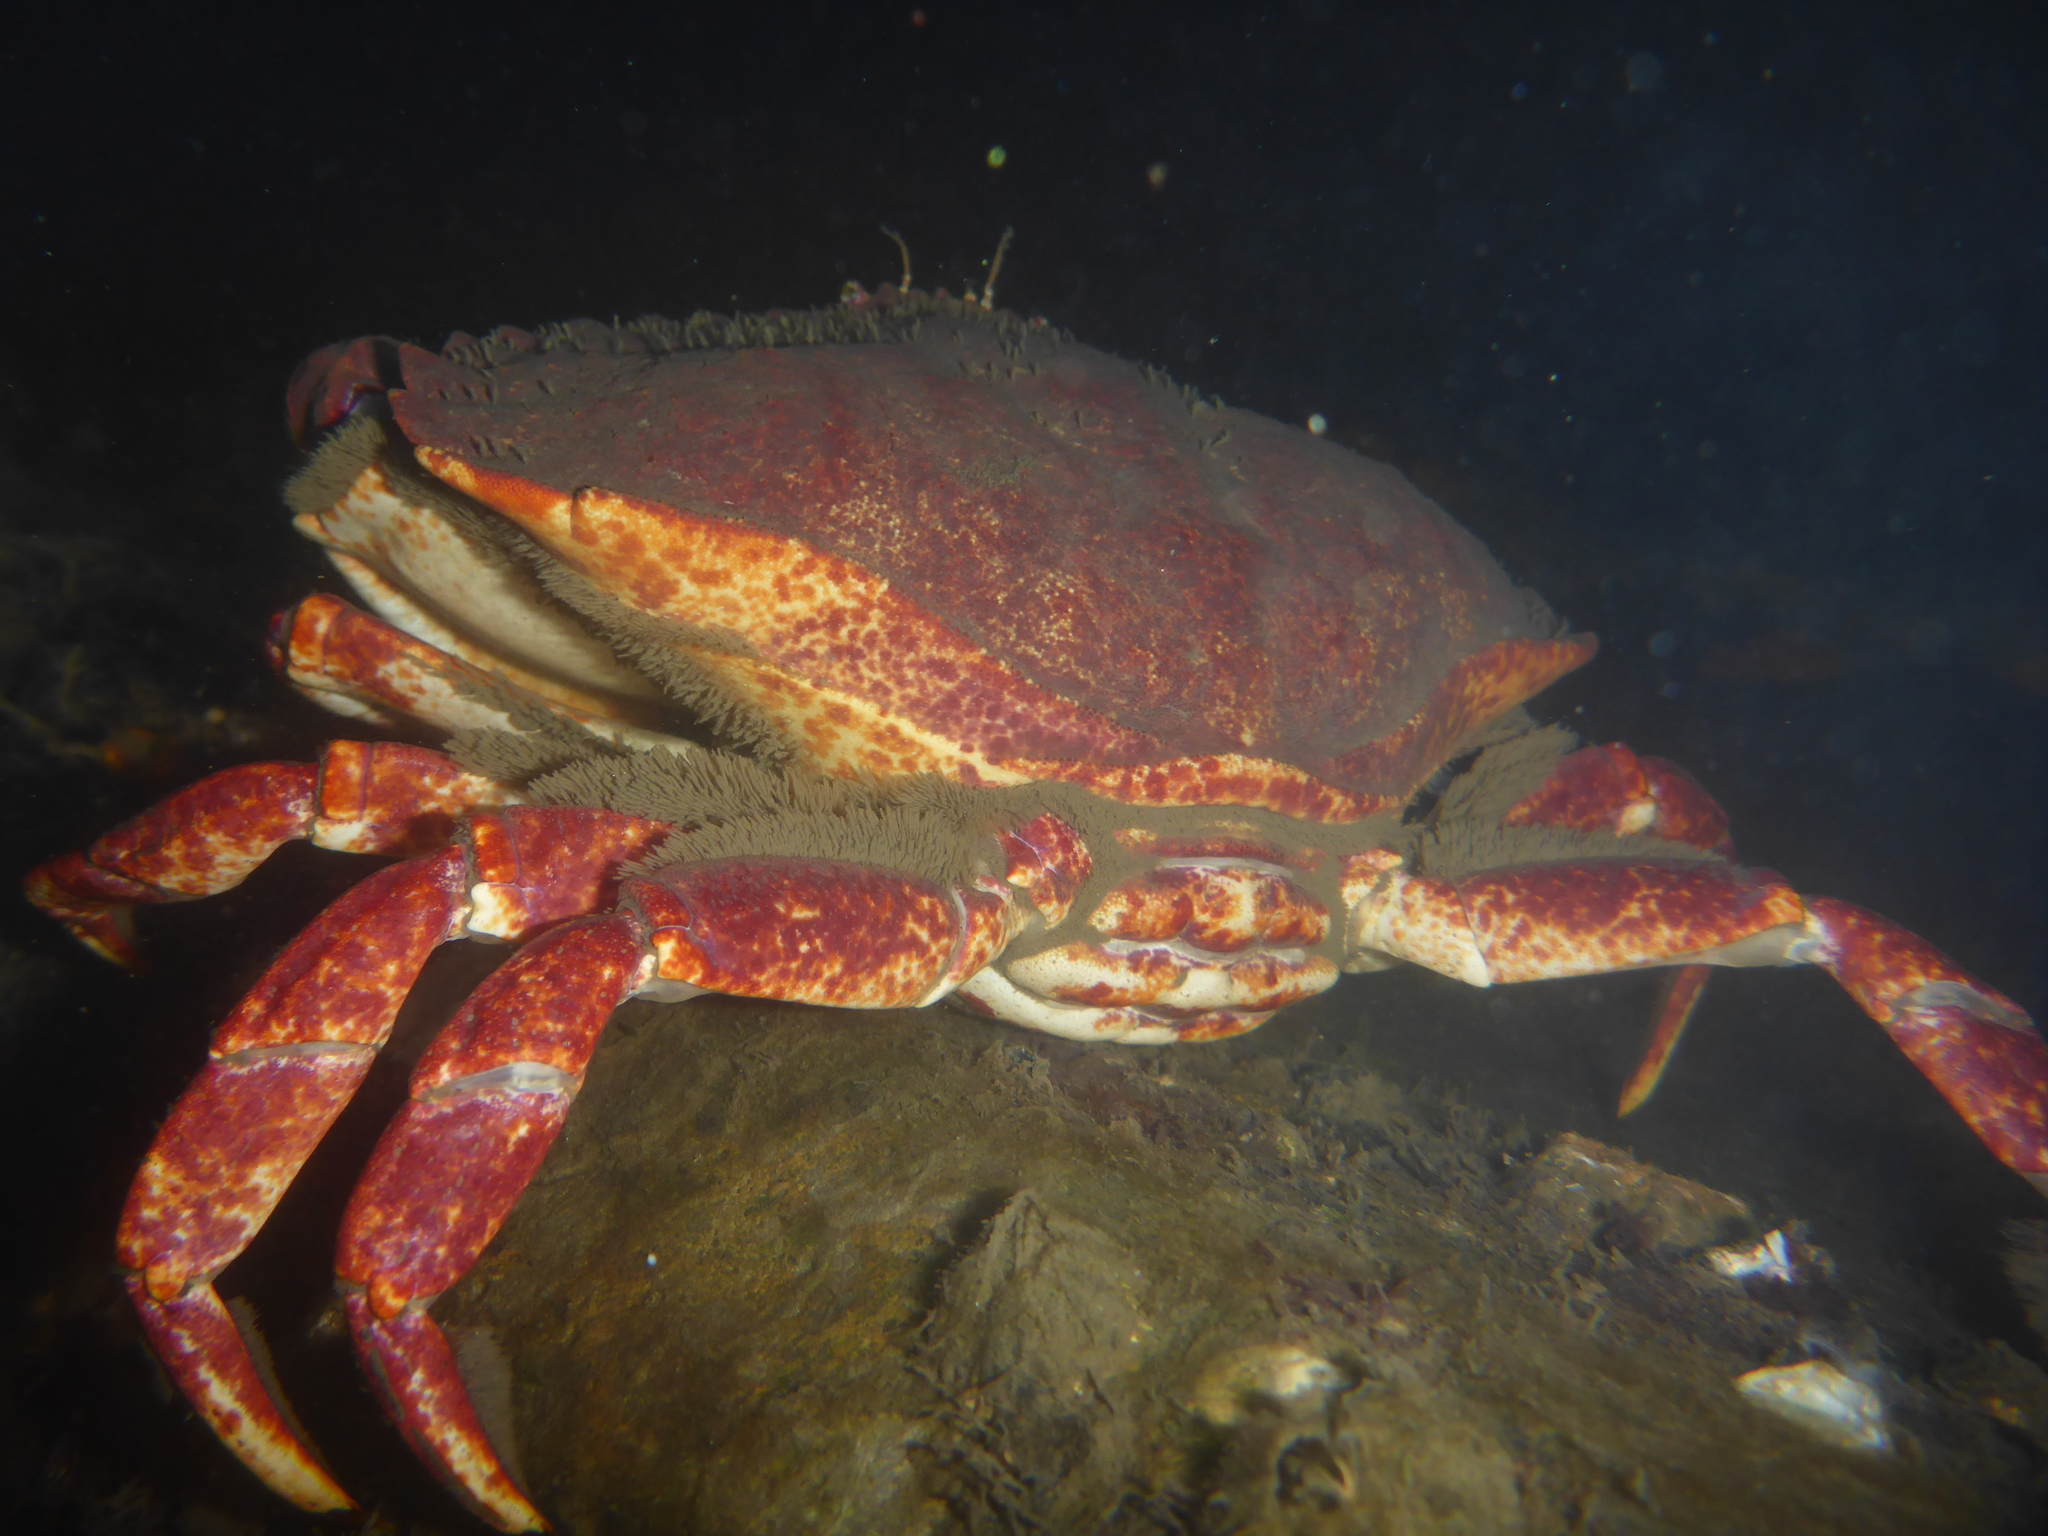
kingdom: Animalia
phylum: Arthropoda
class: Malacostraca
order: Decapoda
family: Cancridae
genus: Cancer
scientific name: Cancer productus
